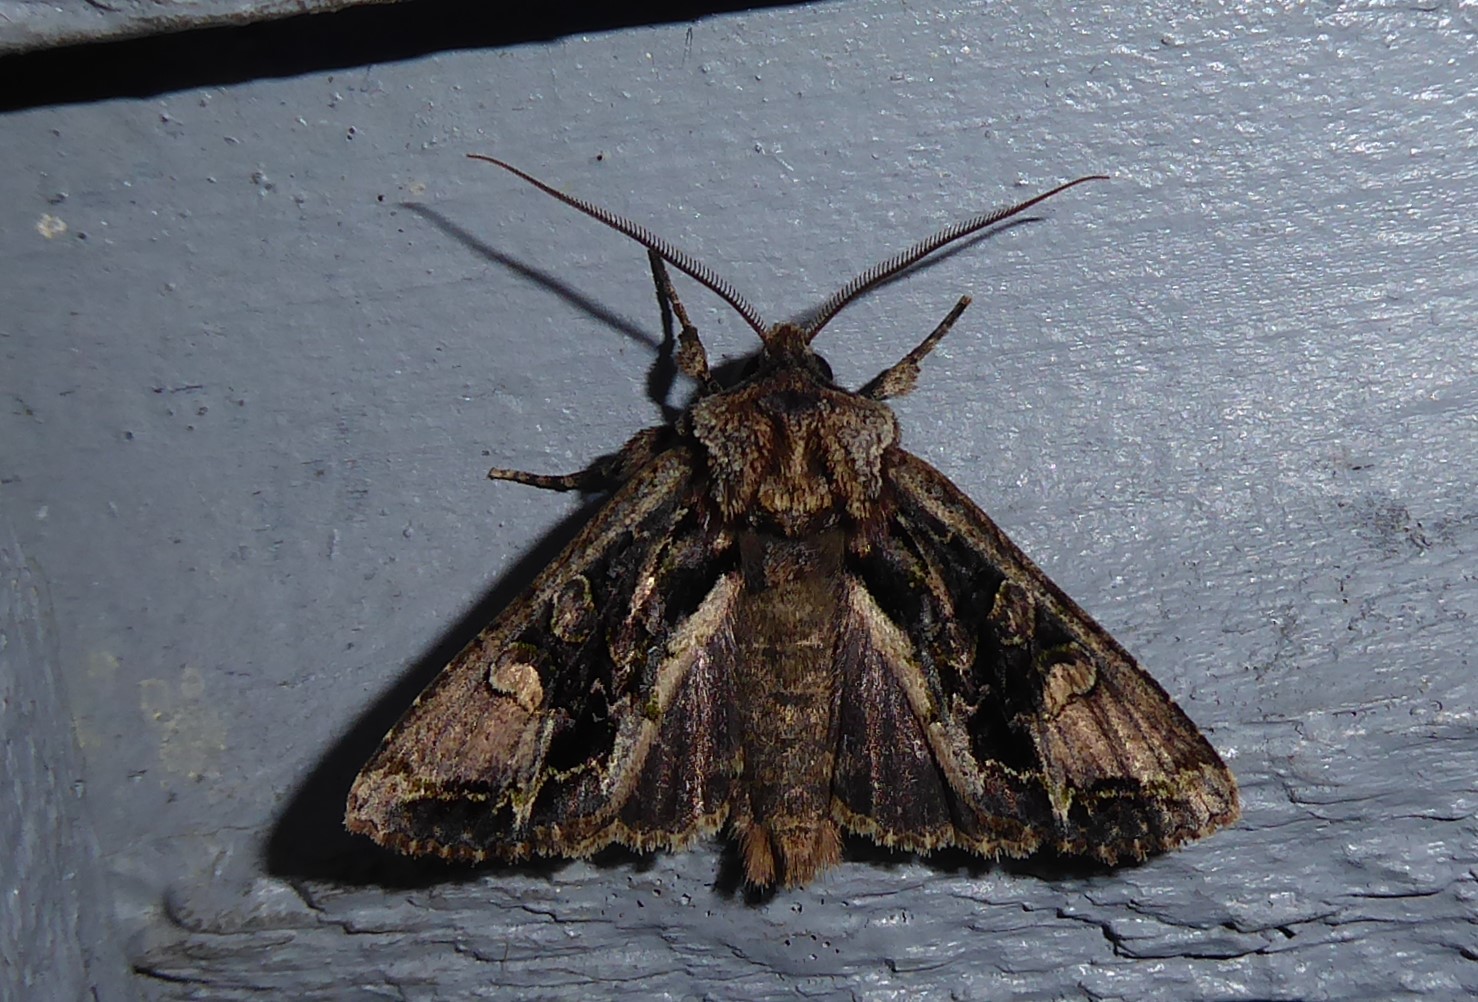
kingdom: Animalia
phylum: Arthropoda
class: Insecta
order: Lepidoptera
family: Noctuidae
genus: Ichneutica
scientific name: Ichneutica insignis
